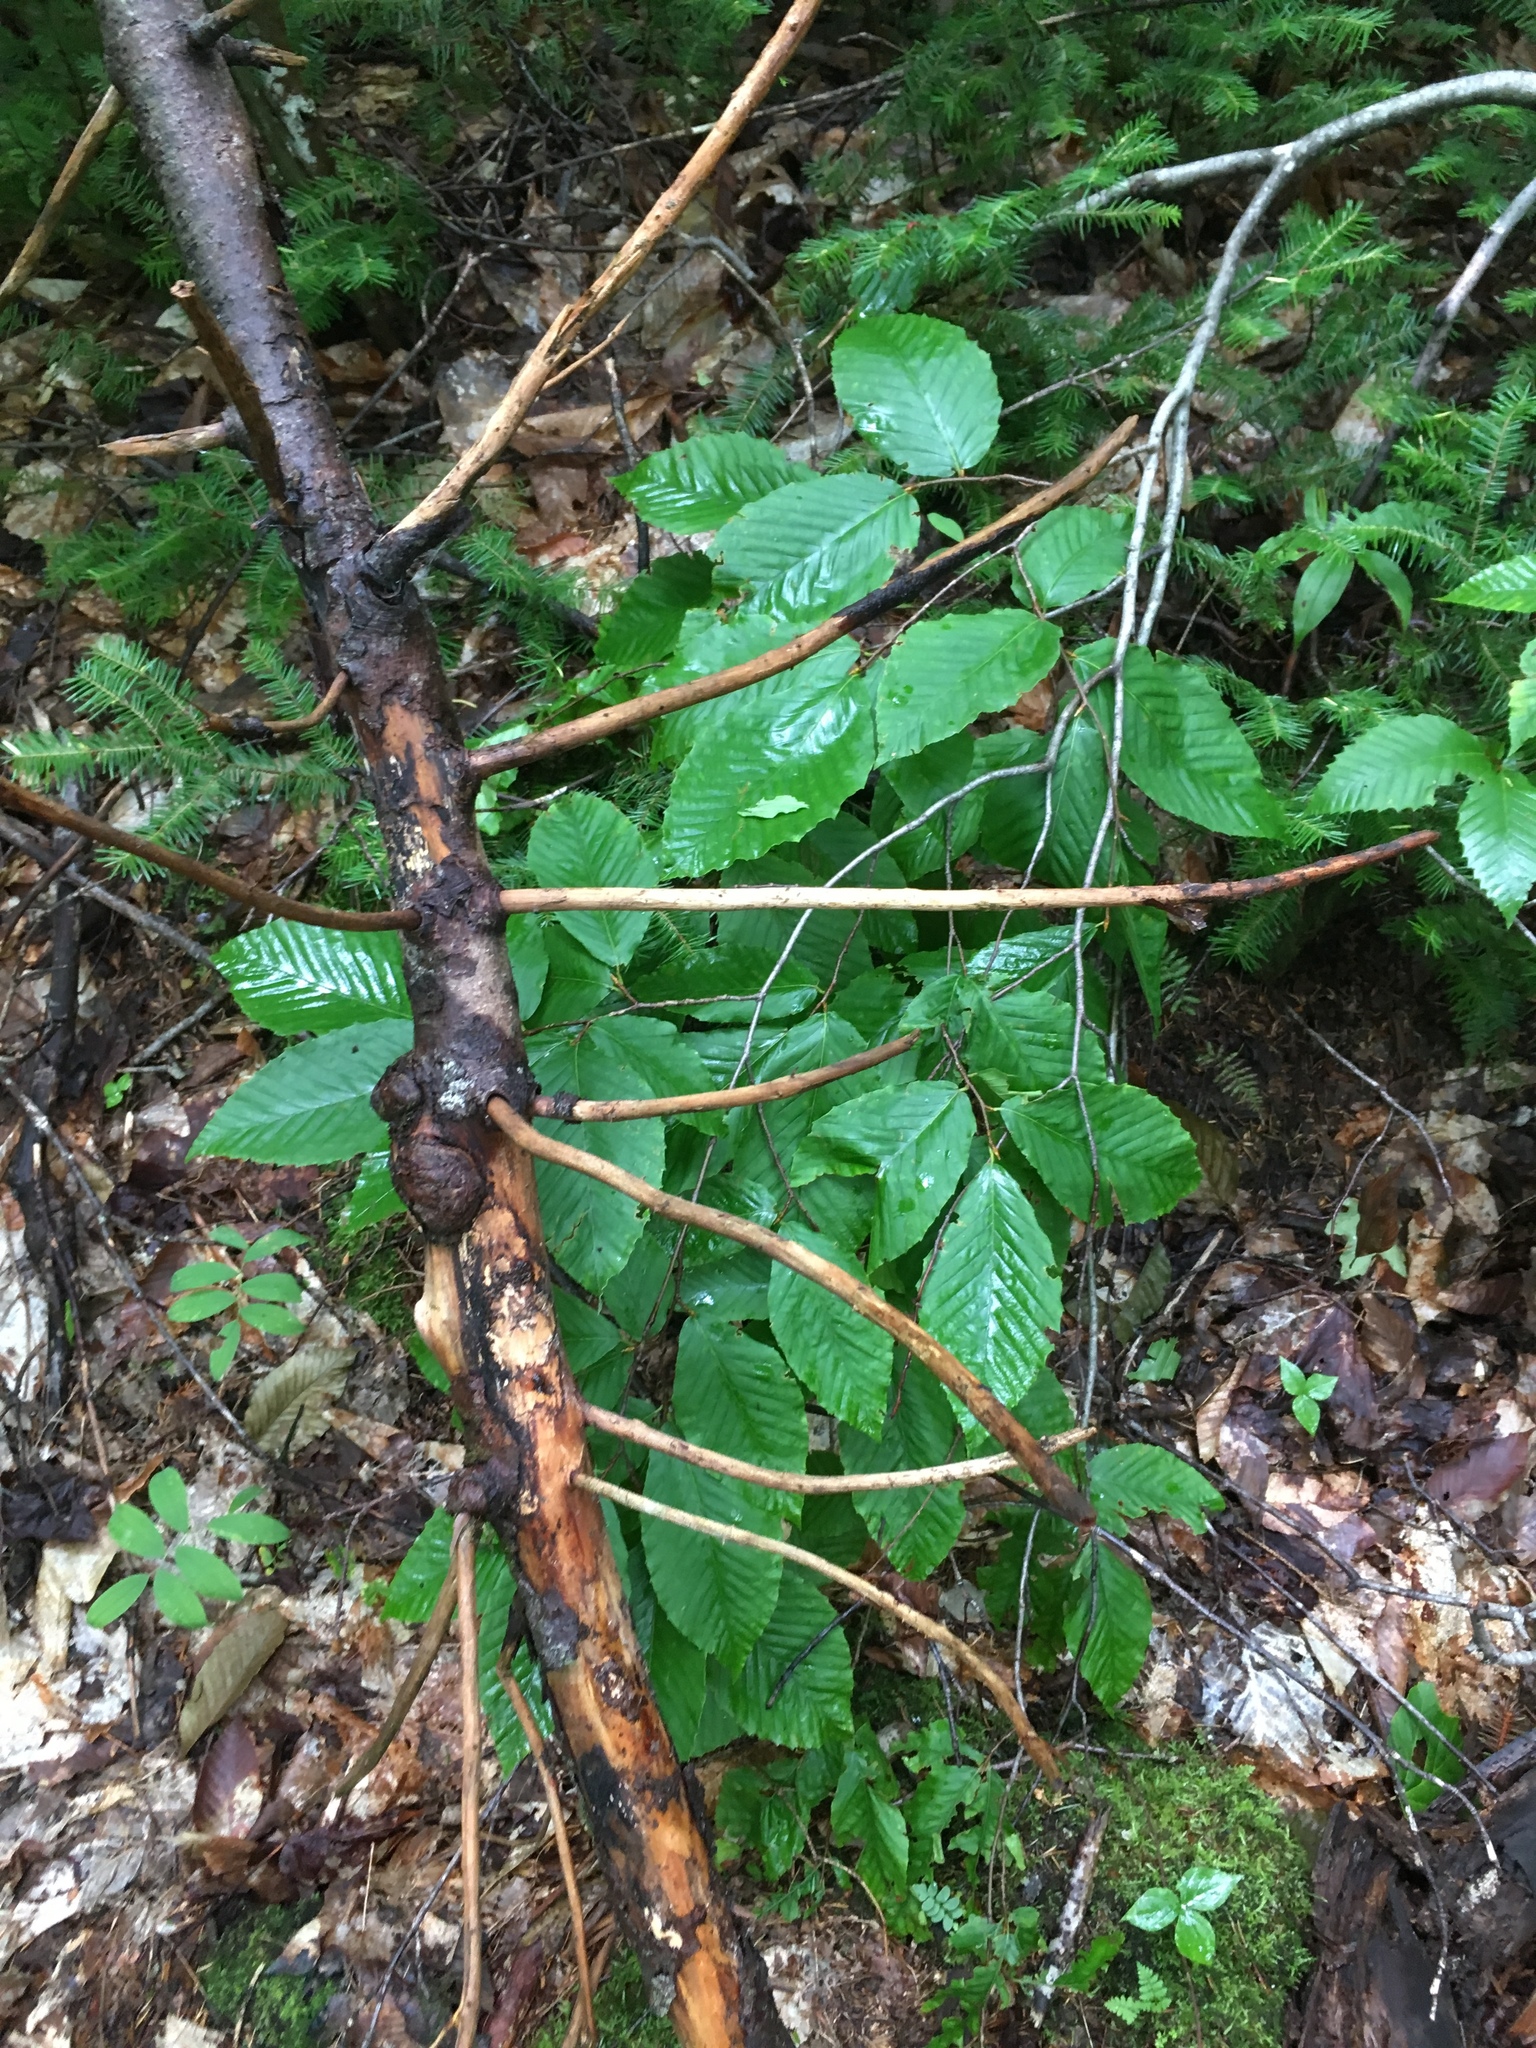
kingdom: Plantae
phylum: Tracheophyta
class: Magnoliopsida
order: Fagales
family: Fagaceae
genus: Fagus
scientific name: Fagus grandifolia
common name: American beech
